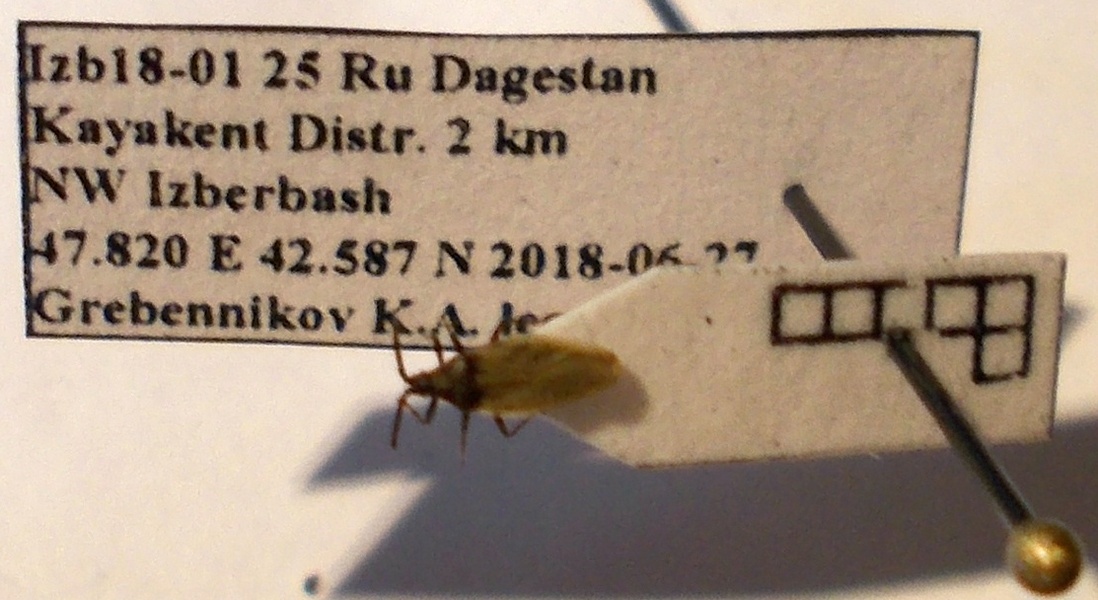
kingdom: Animalia
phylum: Arthropoda
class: Insecta
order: Hemiptera
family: Tingidae
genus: Catoplatus
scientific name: Catoplatus carthusianus
